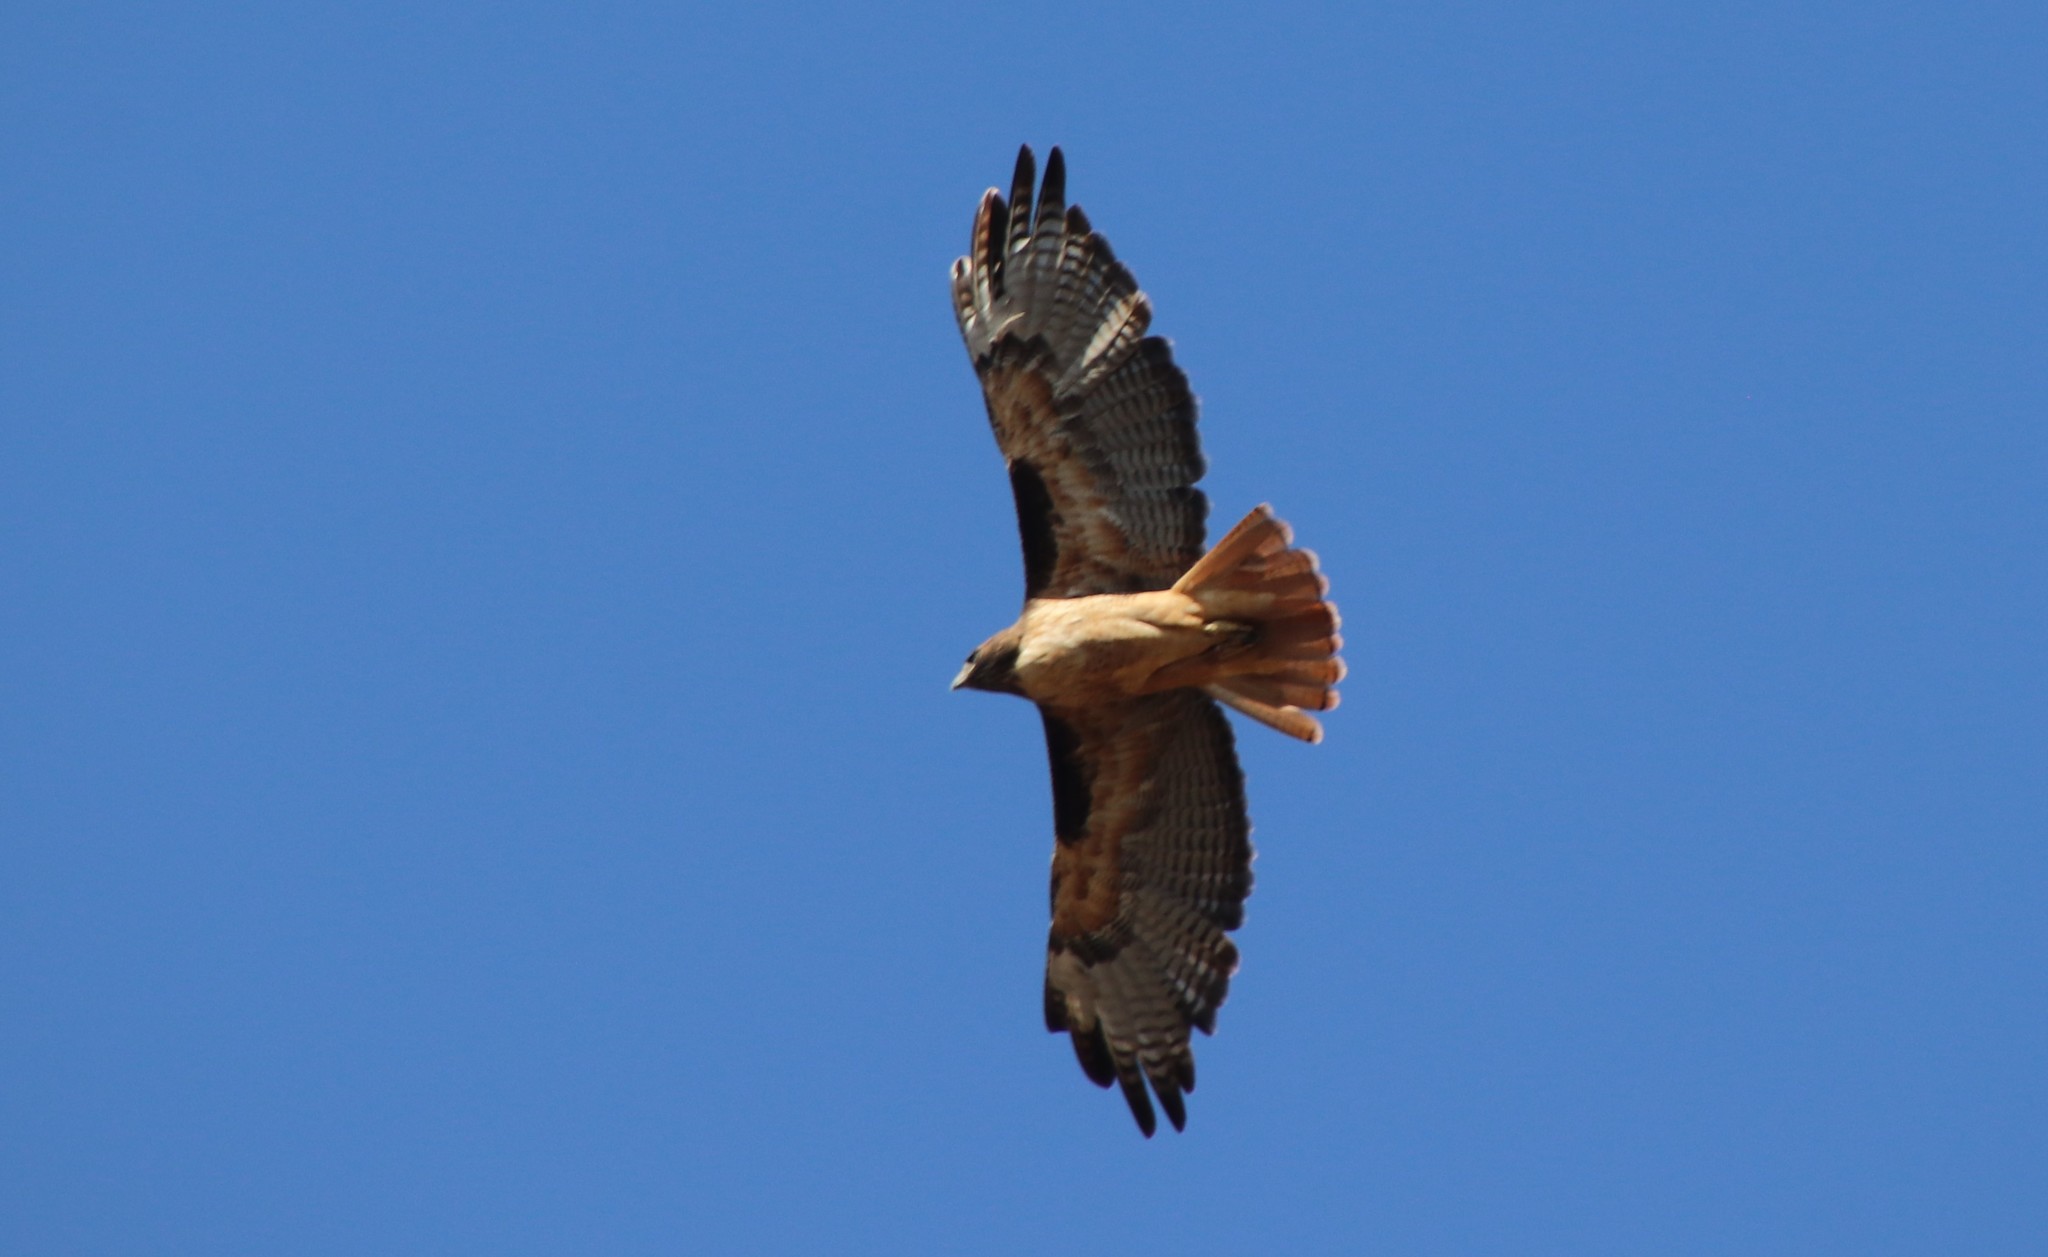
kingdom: Animalia
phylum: Chordata
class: Aves
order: Accipitriformes
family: Accipitridae
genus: Buteo
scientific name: Buteo jamaicensis
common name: Red-tailed hawk
